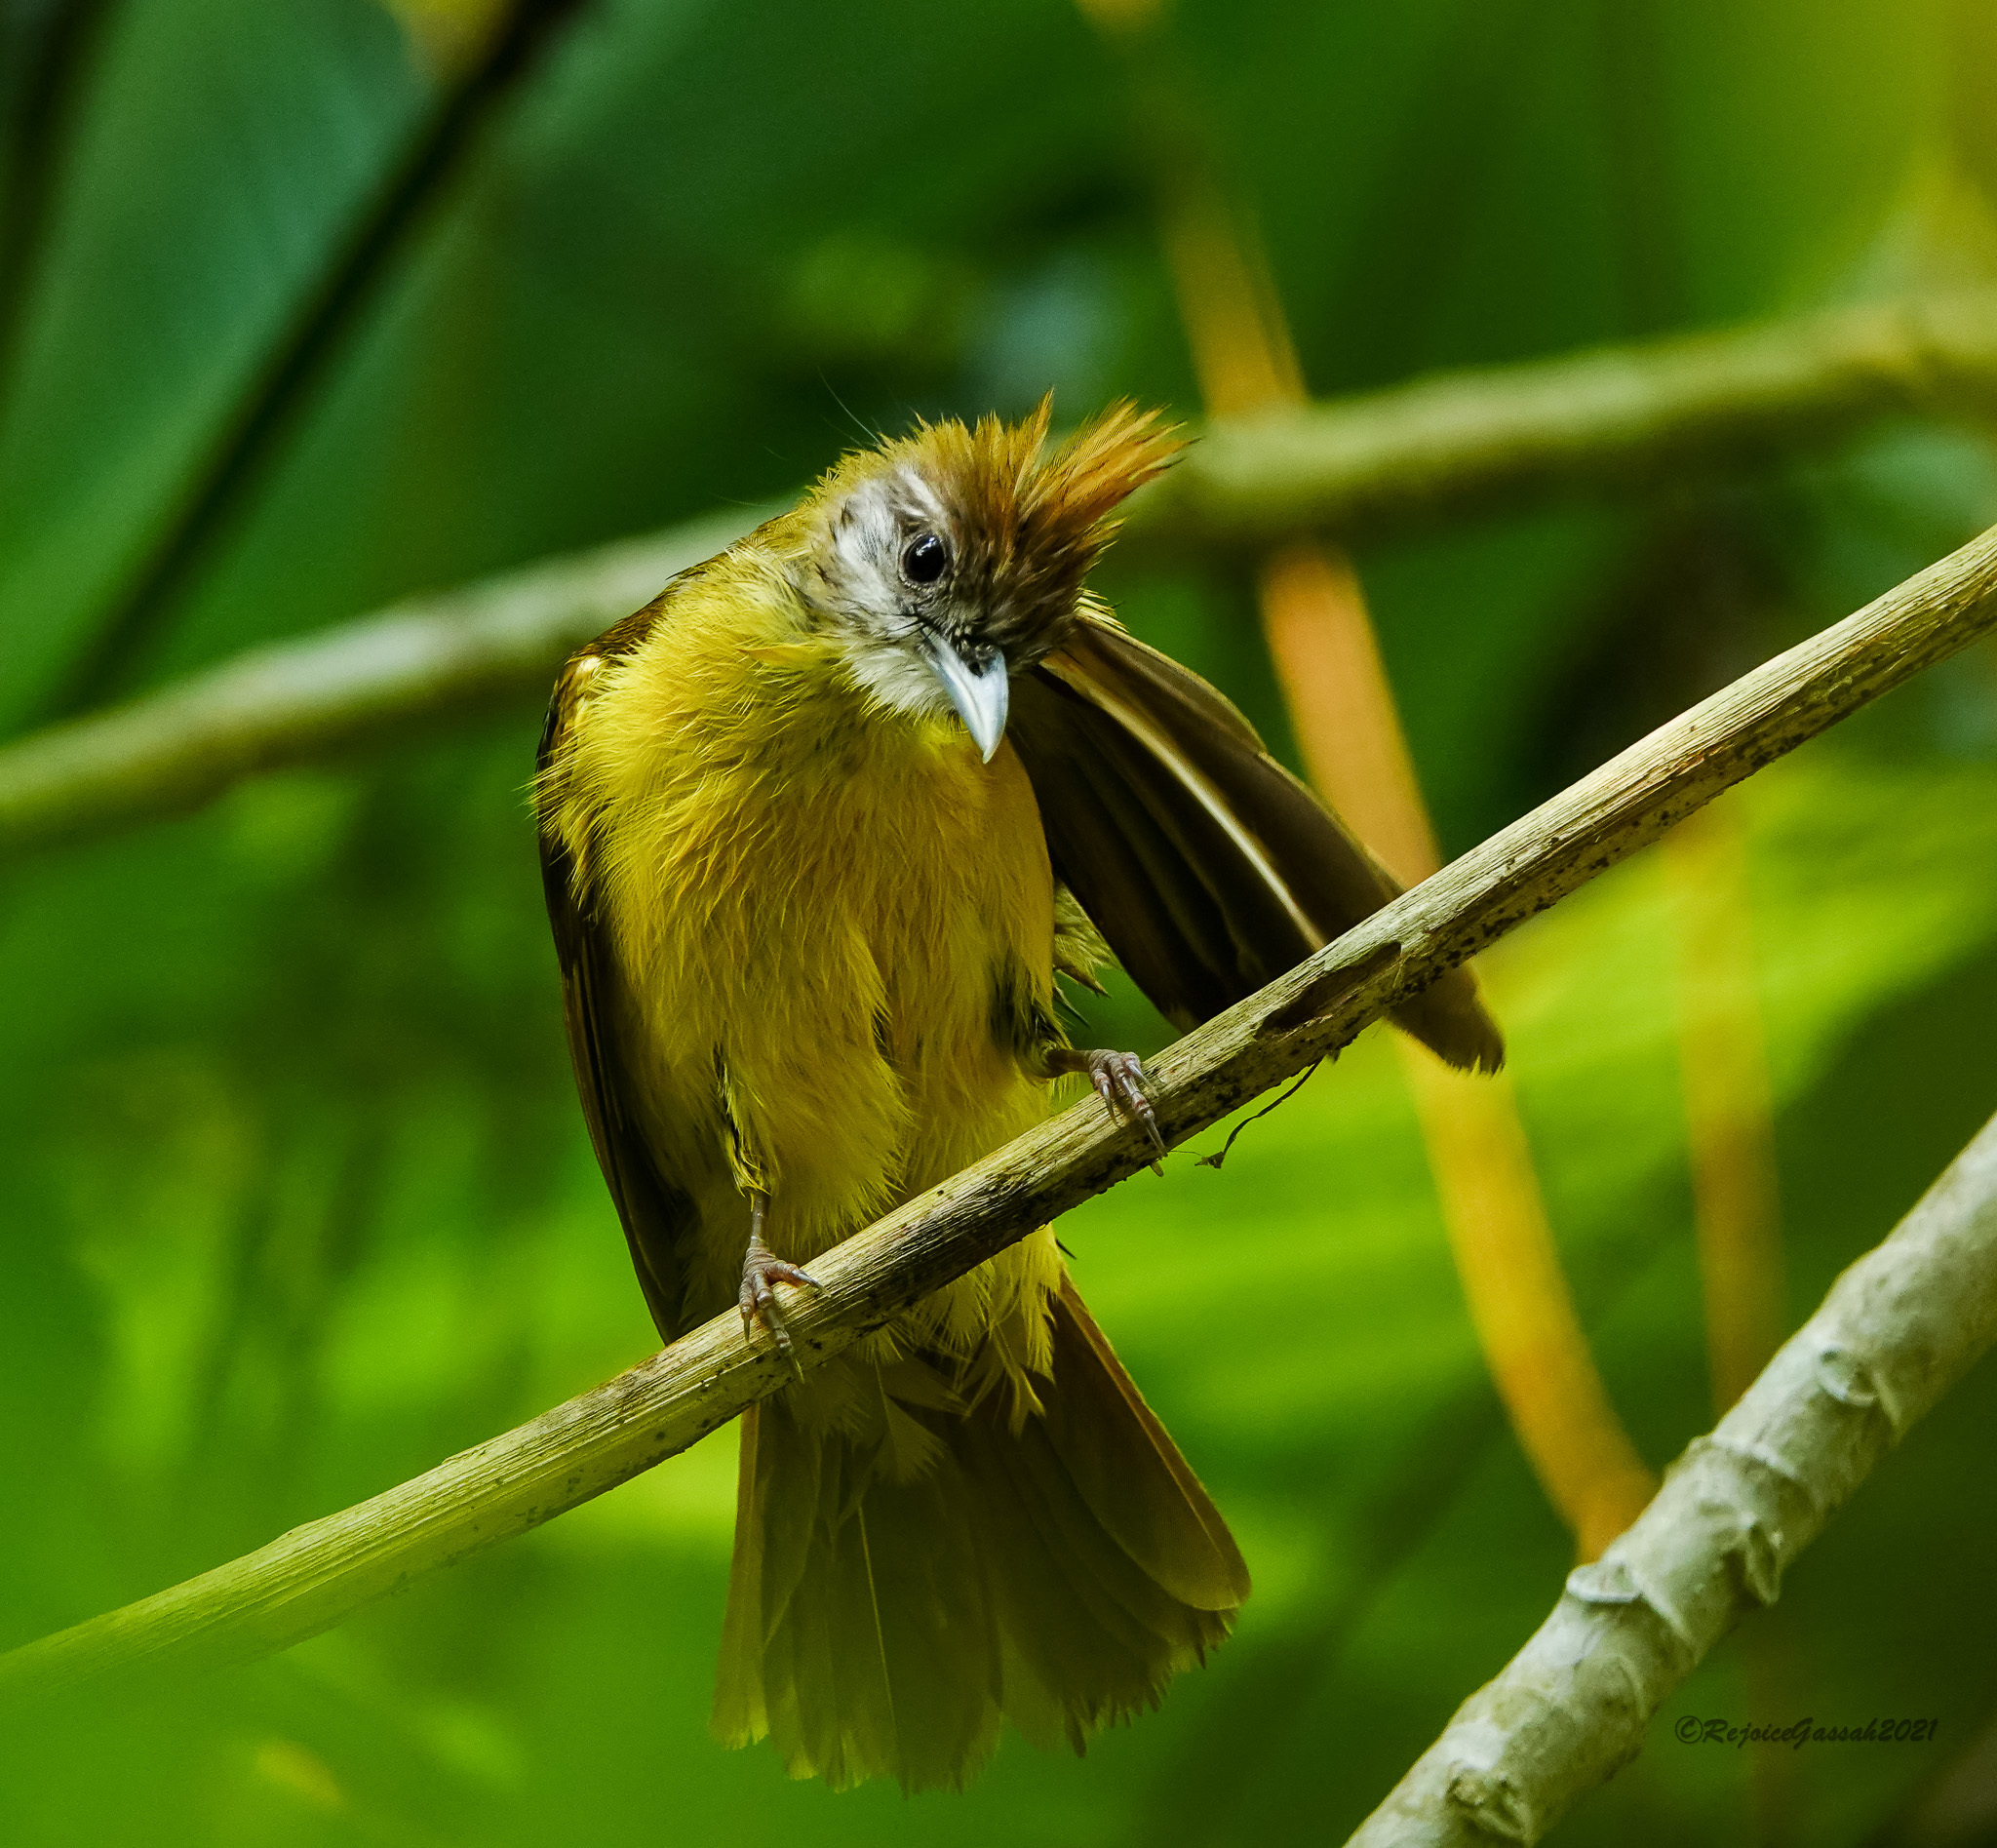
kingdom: Animalia
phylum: Chordata
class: Aves
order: Passeriformes
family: Pycnonotidae
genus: Alophoixus
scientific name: Alophoixus flaveolus
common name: White-throated bulbul
